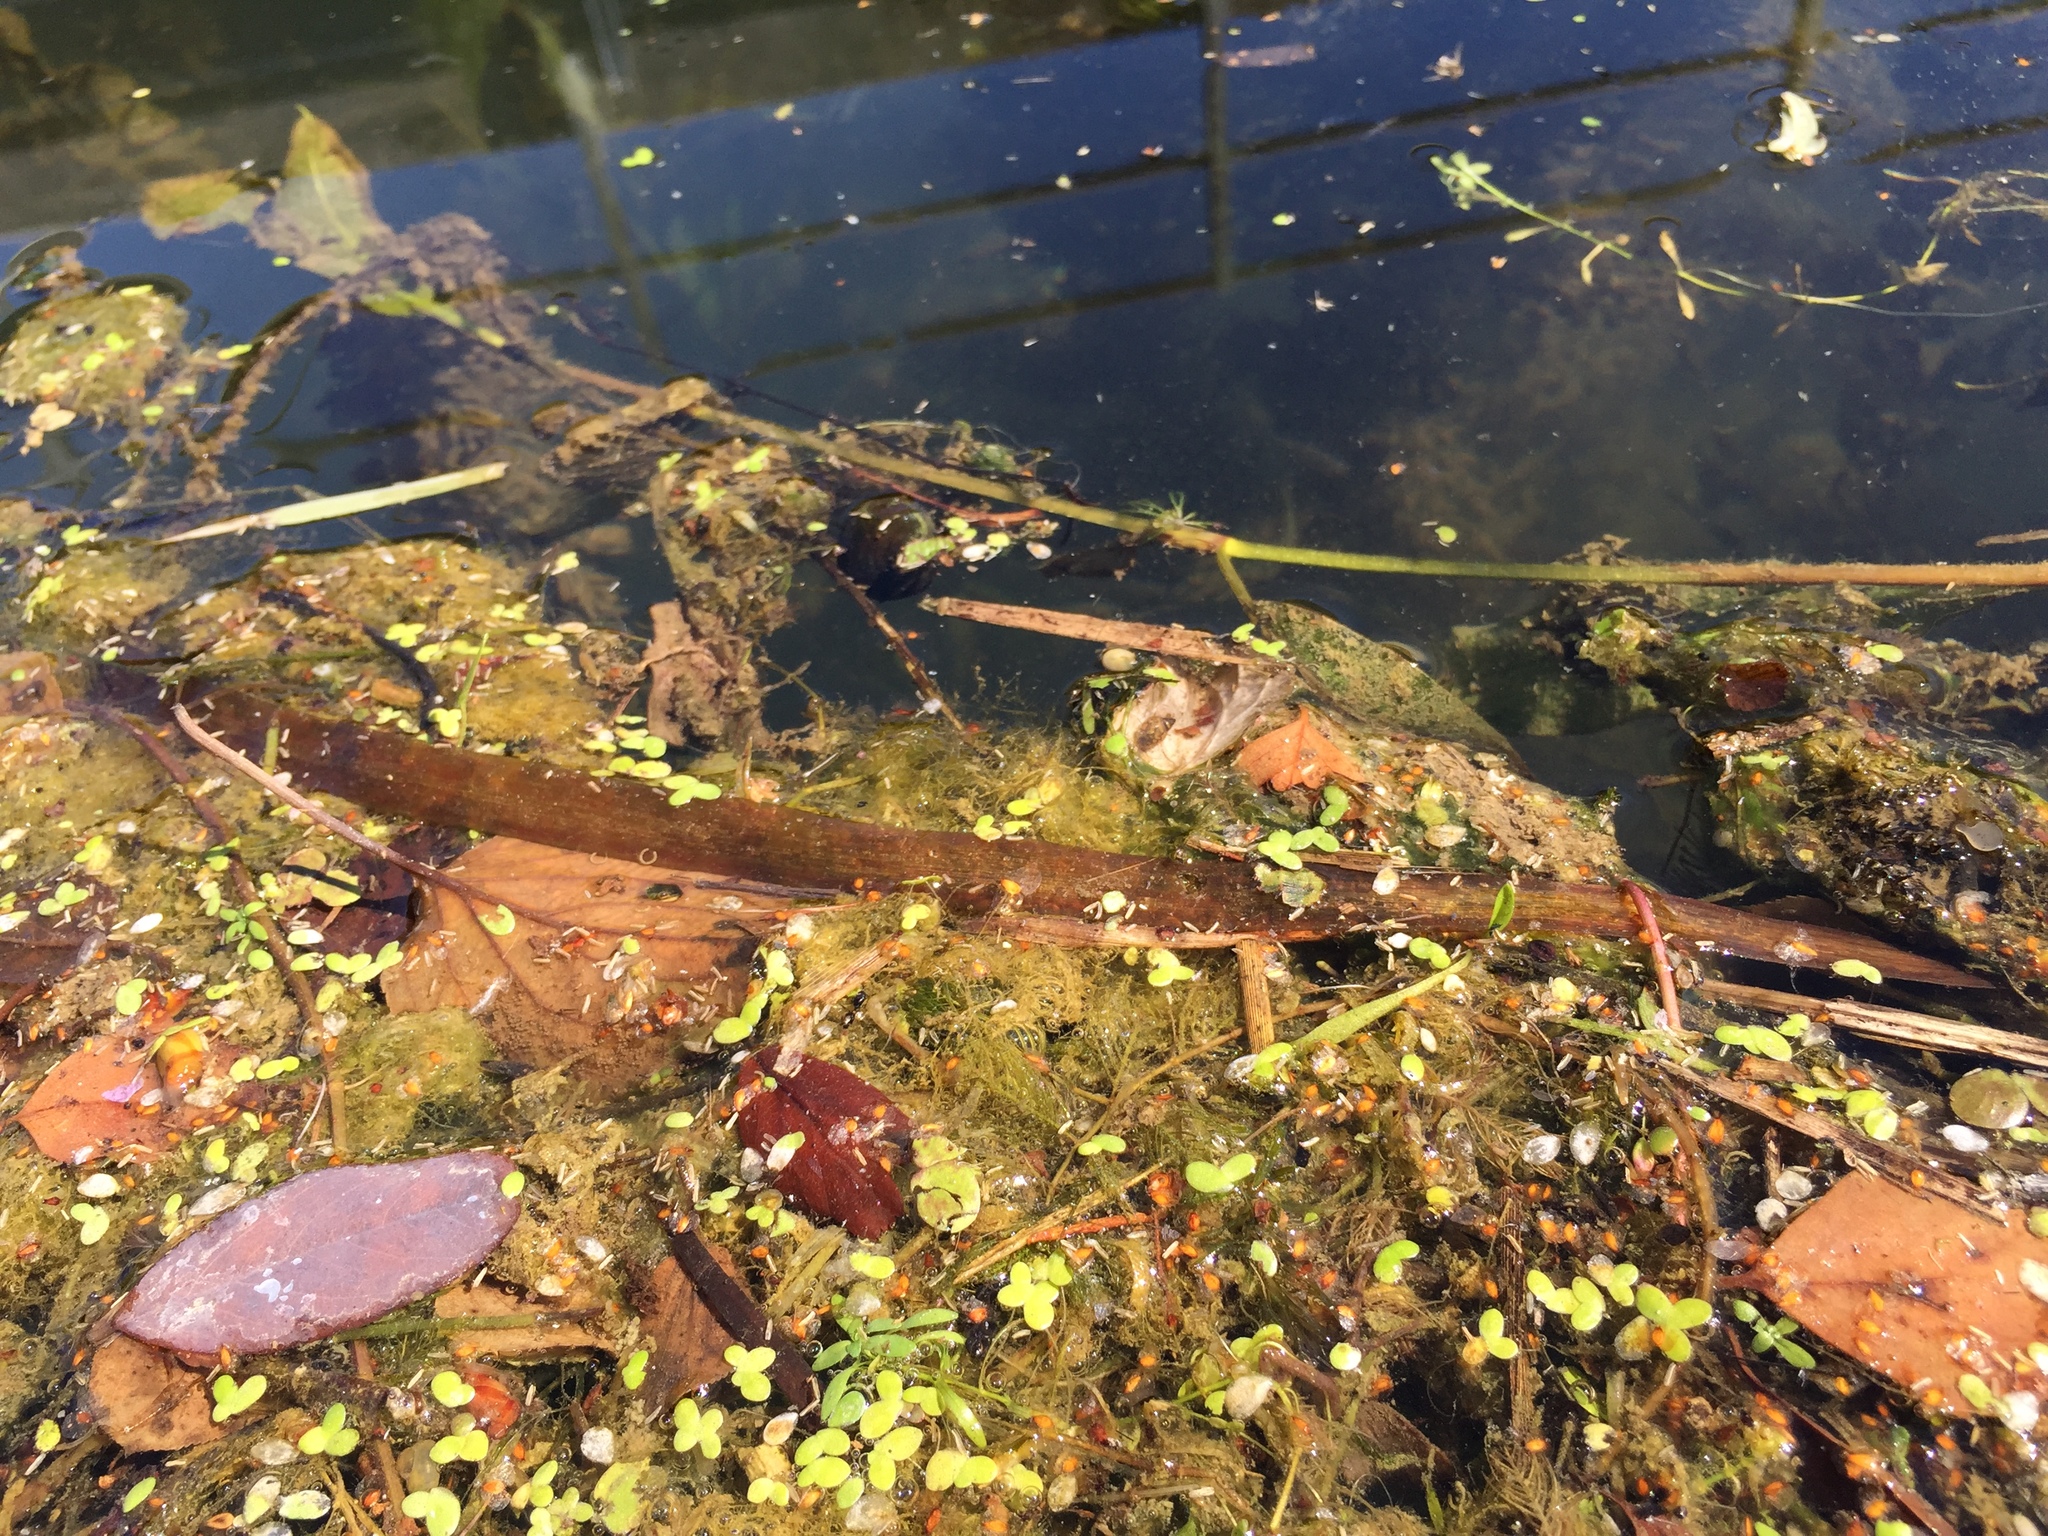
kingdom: Plantae
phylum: Tracheophyta
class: Liliopsida
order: Alismatales
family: Araceae
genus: Lemna
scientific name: Lemna minor
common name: Common duckweed
